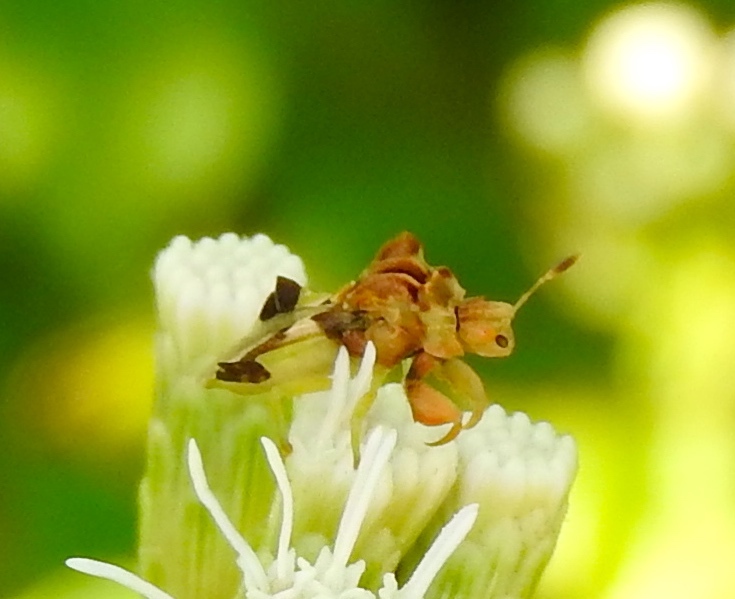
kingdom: Animalia
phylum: Arthropoda
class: Insecta
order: Hemiptera
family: Reduviidae
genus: Phymata
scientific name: Phymata
